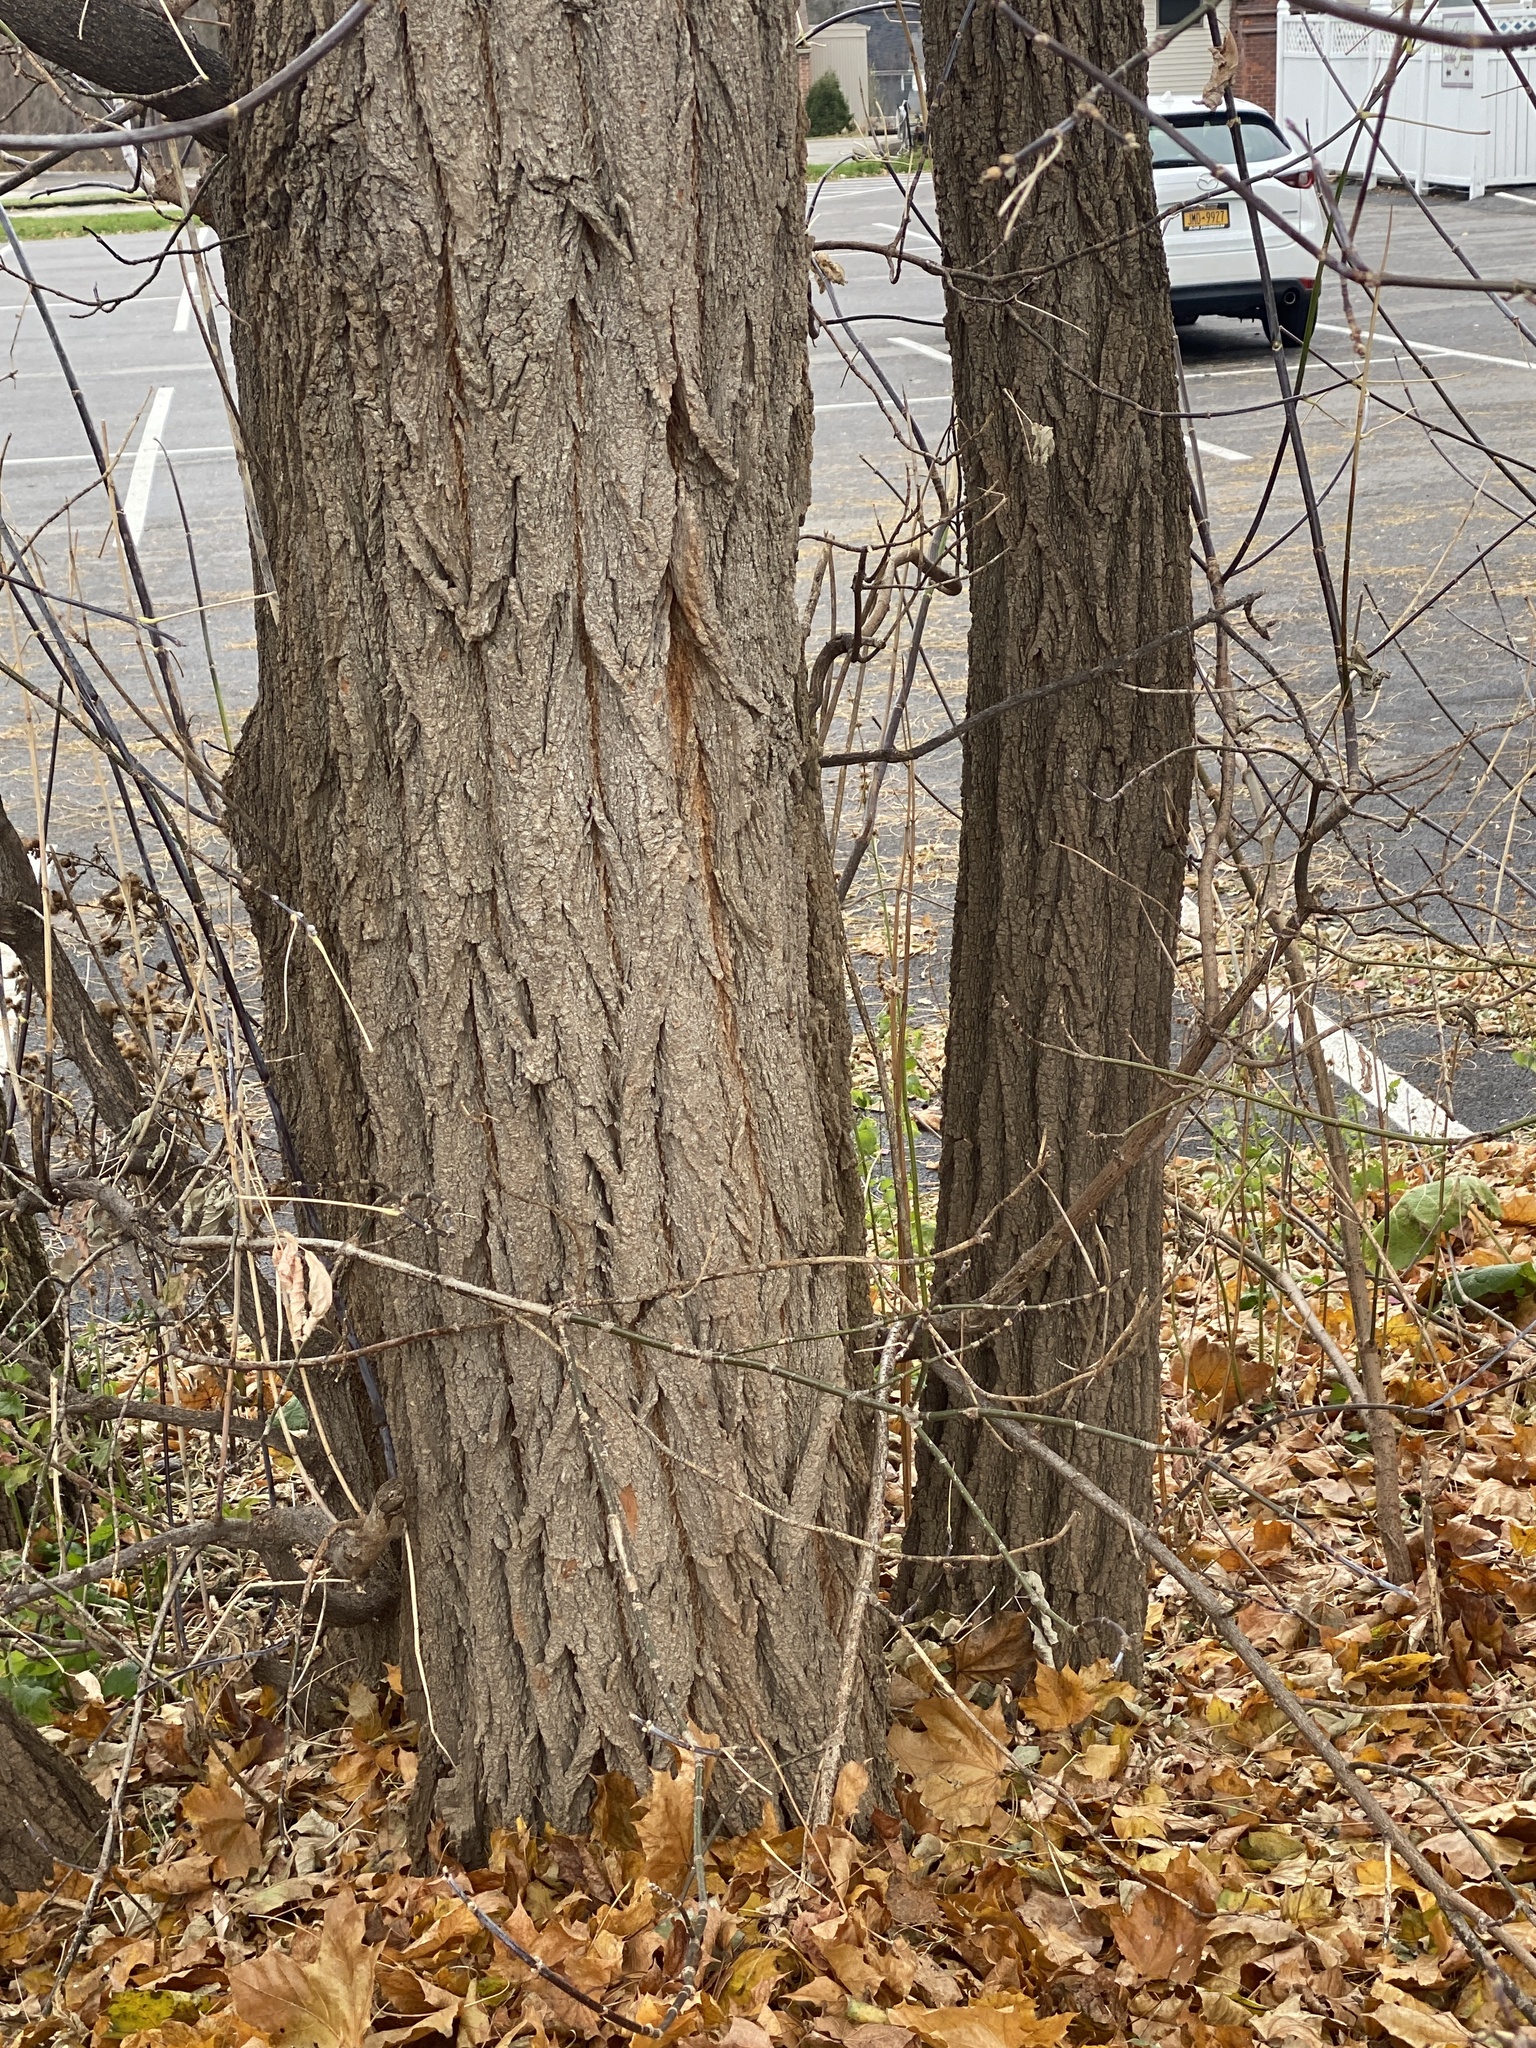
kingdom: Plantae
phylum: Tracheophyta
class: Magnoliopsida
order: Sapindales
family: Sapindaceae
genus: Acer
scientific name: Acer negundo
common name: Ashleaf maple
